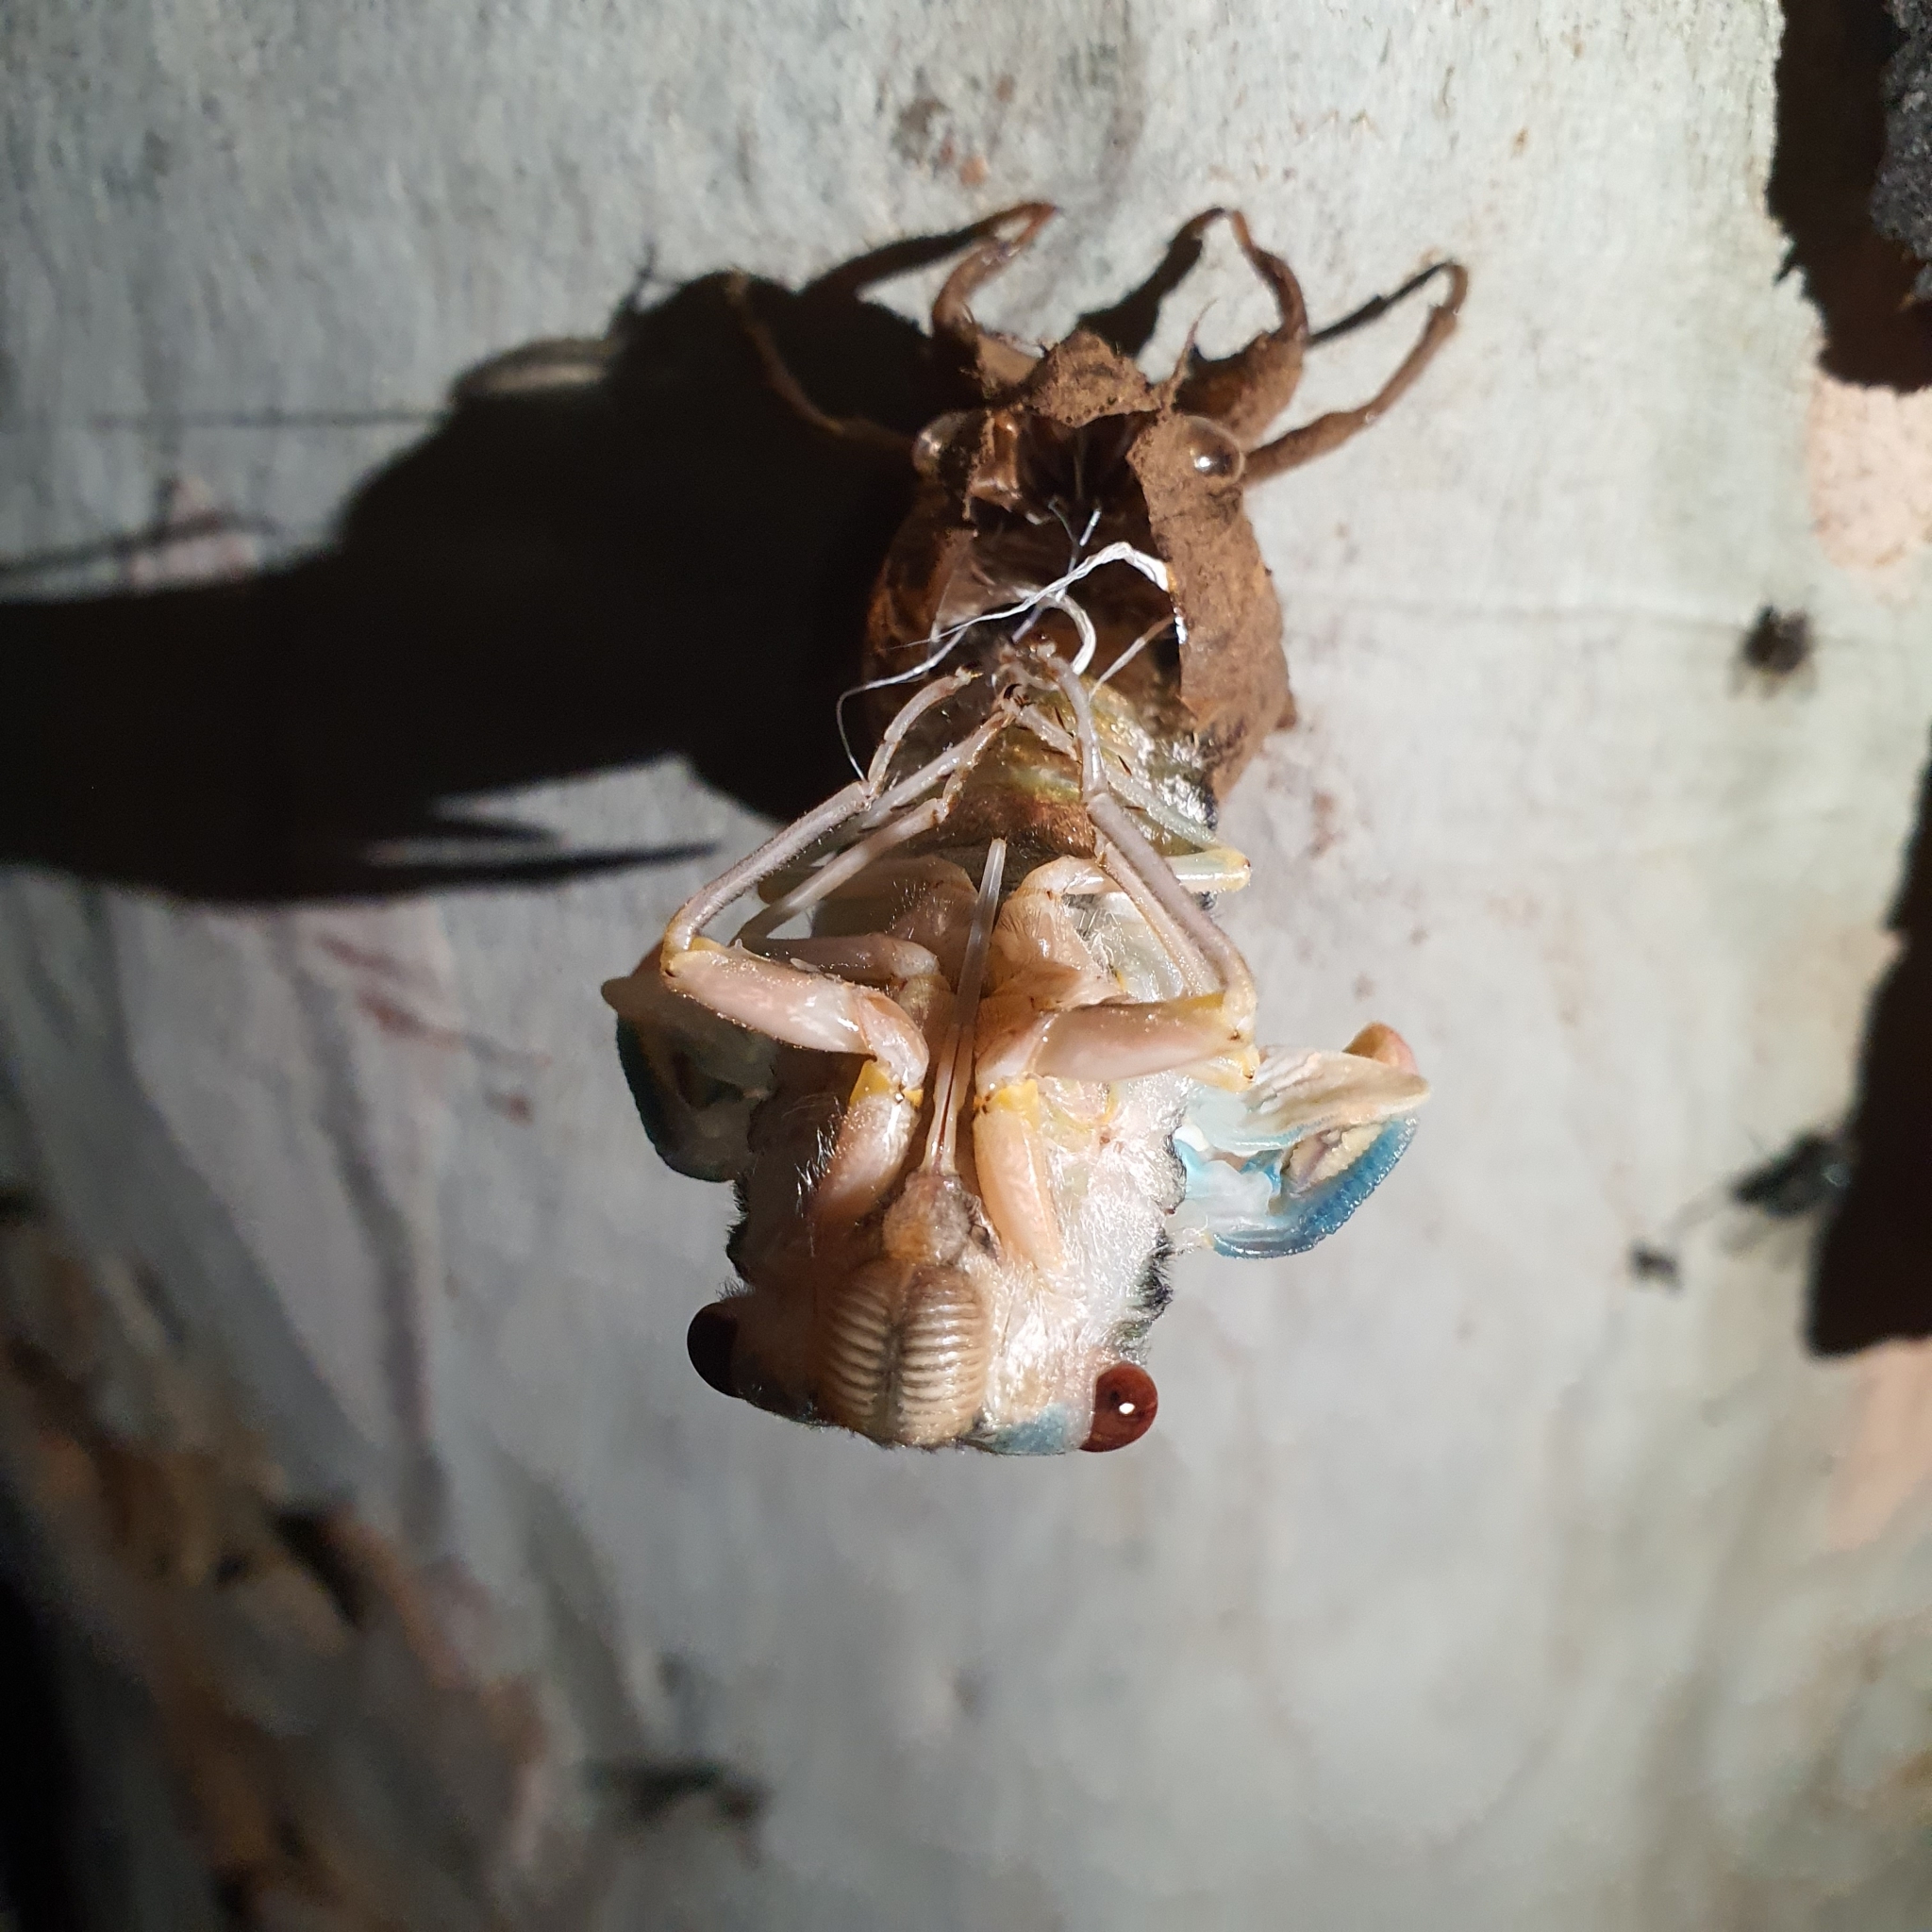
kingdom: Animalia
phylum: Arthropoda
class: Insecta
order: Hemiptera
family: Cicadidae
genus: Psaltoda
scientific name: Psaltoda moerens
